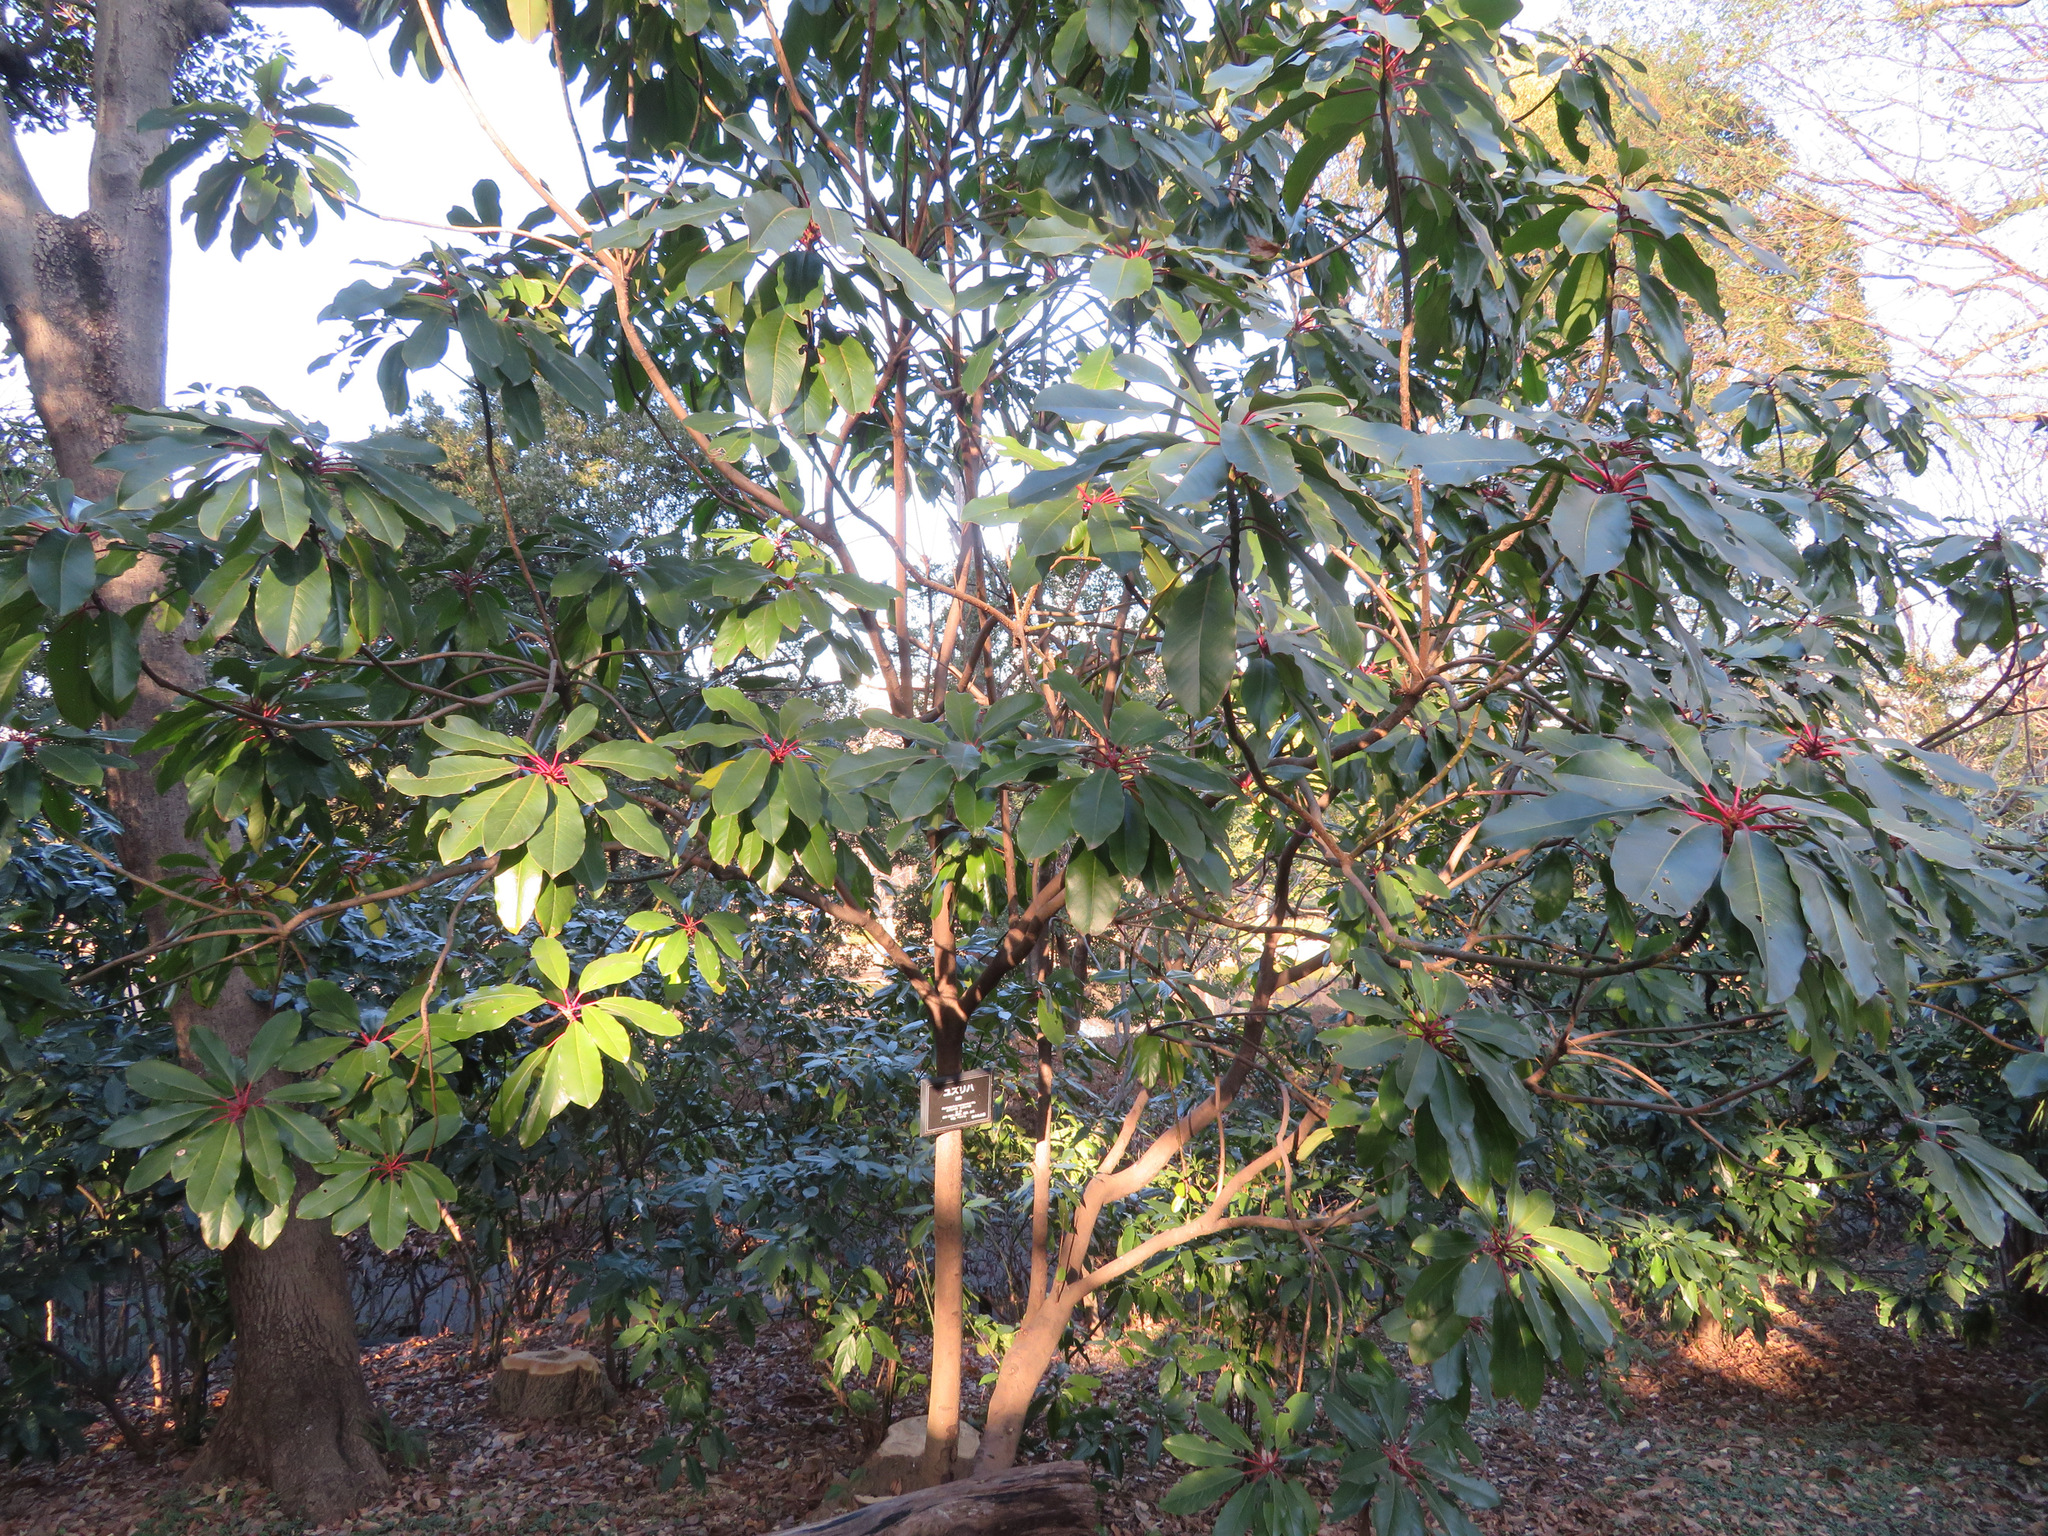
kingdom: Plantae
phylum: Tracheophyta
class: Magnoliopsida
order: Saxifragales
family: Daphniphyllaceae
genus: Daphniphyllum
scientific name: Daphniphyllum macropodum
